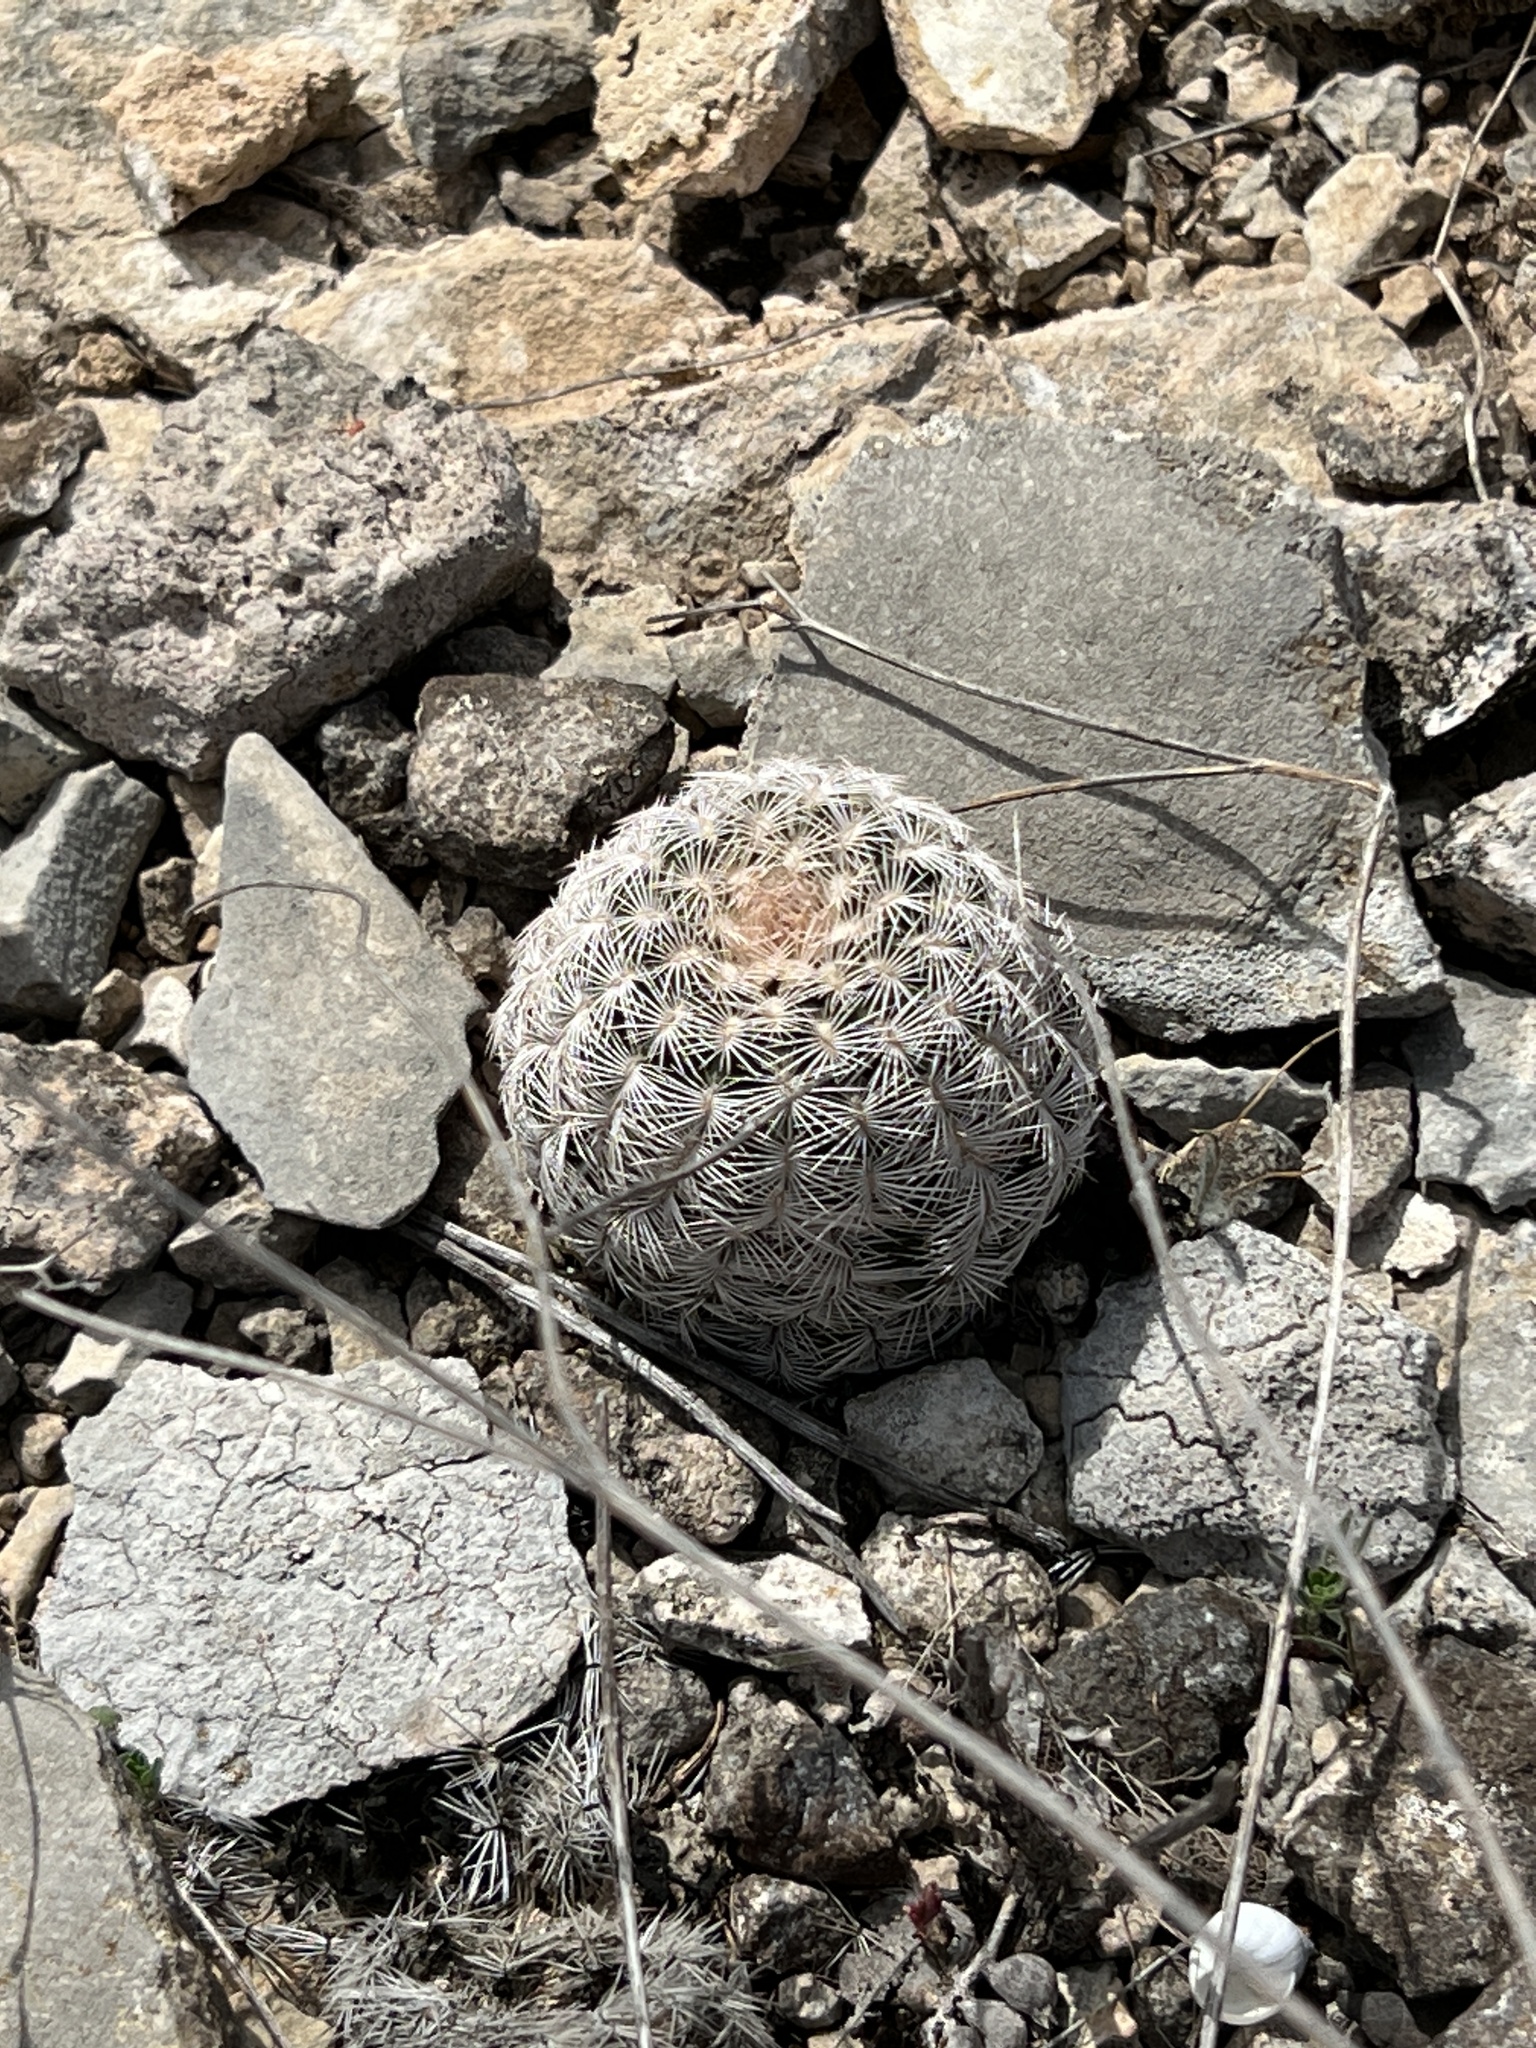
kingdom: Plantae
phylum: Tracheophyta
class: Magnoliopsida
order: Caryophyllales
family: Cactaceae
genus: Echinocereus
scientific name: Echinocereus reichenbachii
